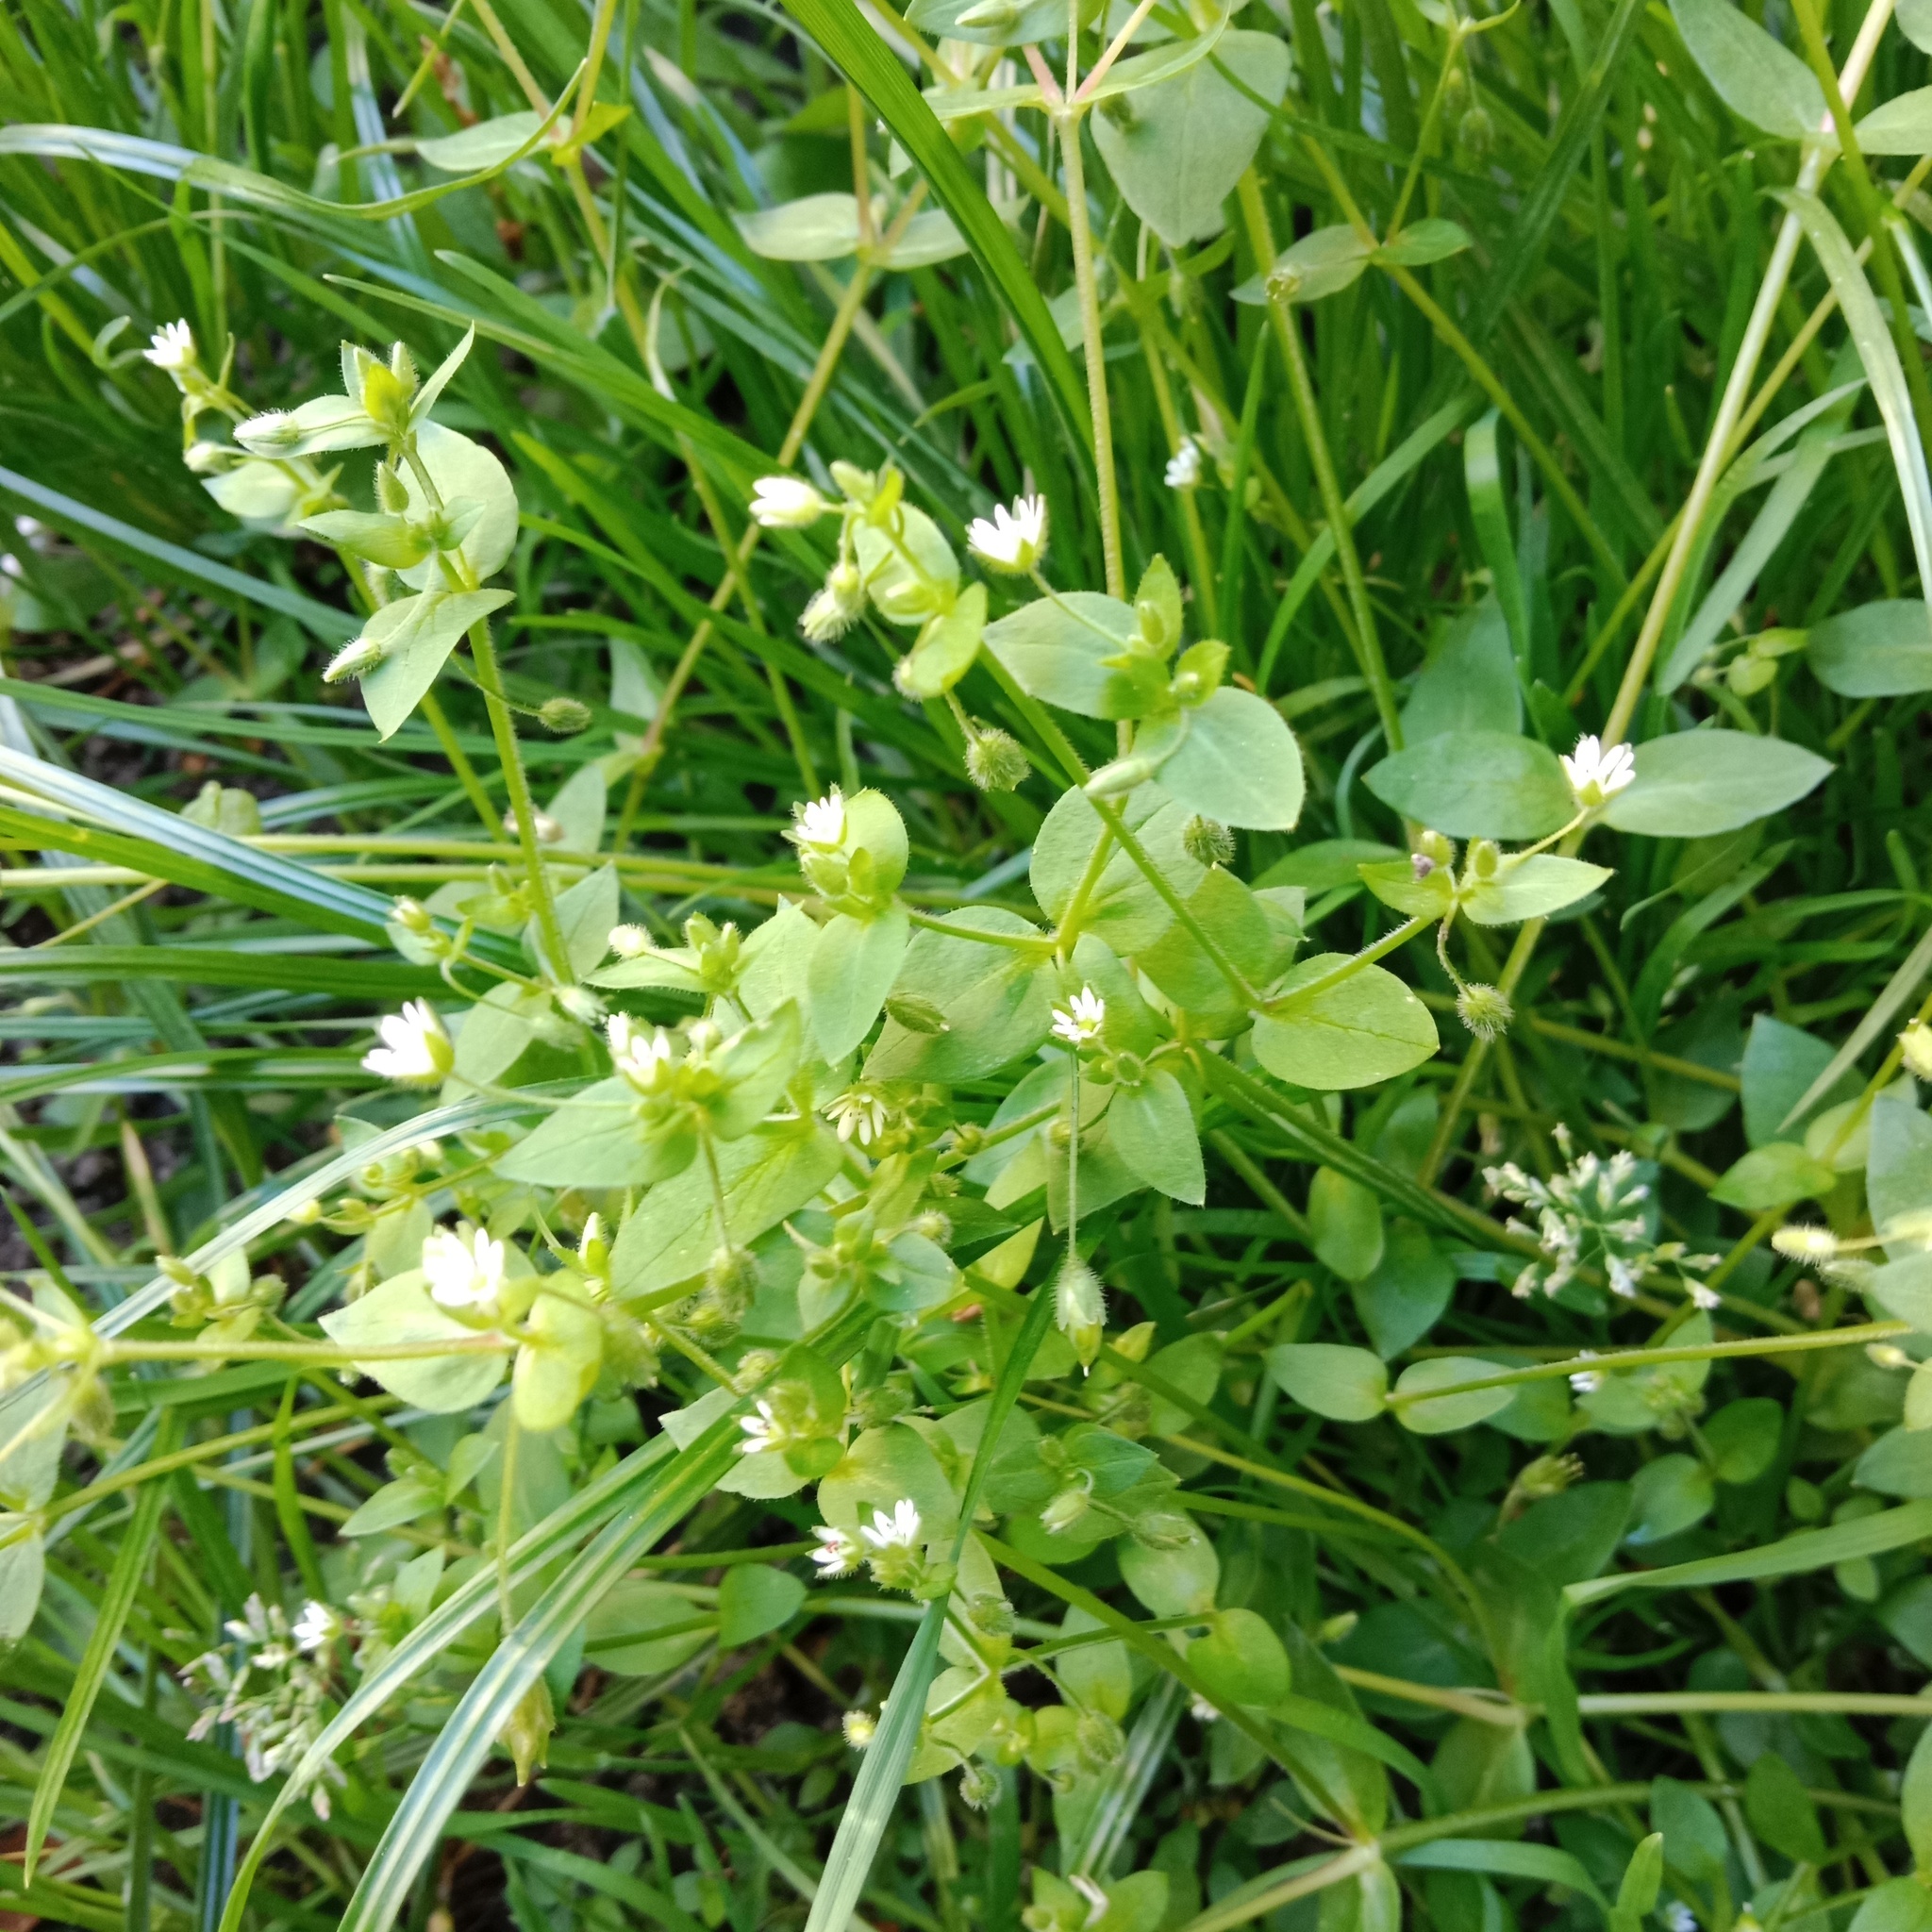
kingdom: Plantae
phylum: Tracheophyta
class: Magnoliopsida
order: Caryophyllales
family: Caryophyllaceae
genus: Stellaria
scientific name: Stellaria media
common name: Common chickweed
